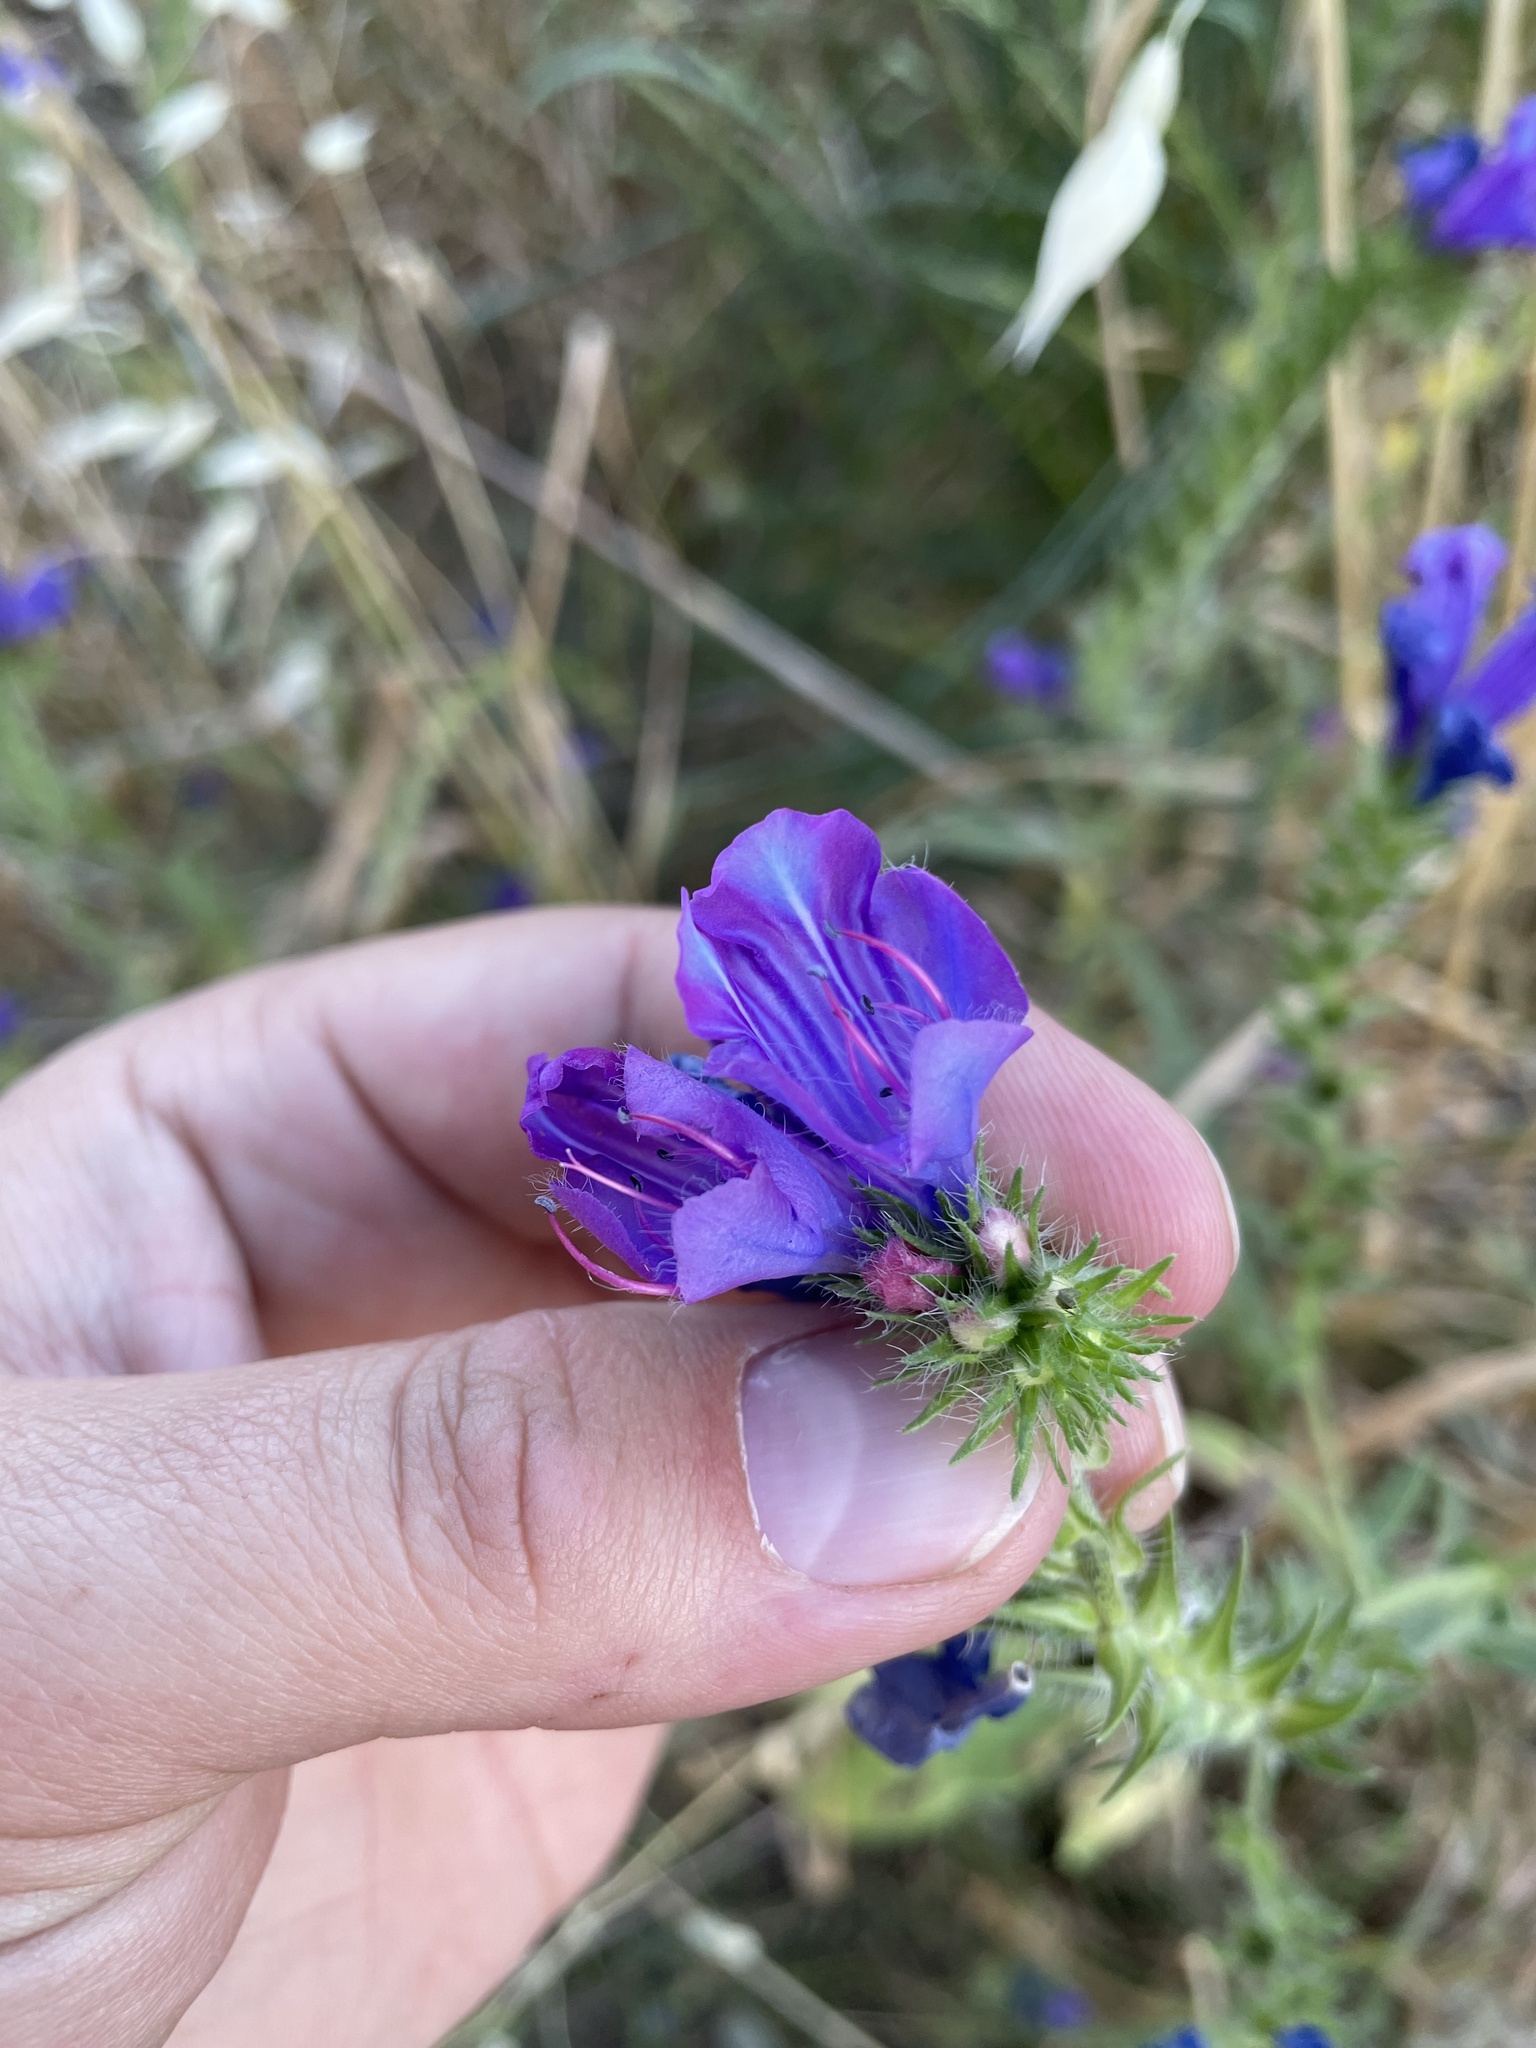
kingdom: Plantae
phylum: Tracheophyta
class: Magnoliopsida
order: Boraginales
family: Boraginaceae
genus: Echium
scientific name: Echium plantagineum
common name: Purple viper's-bugloss
